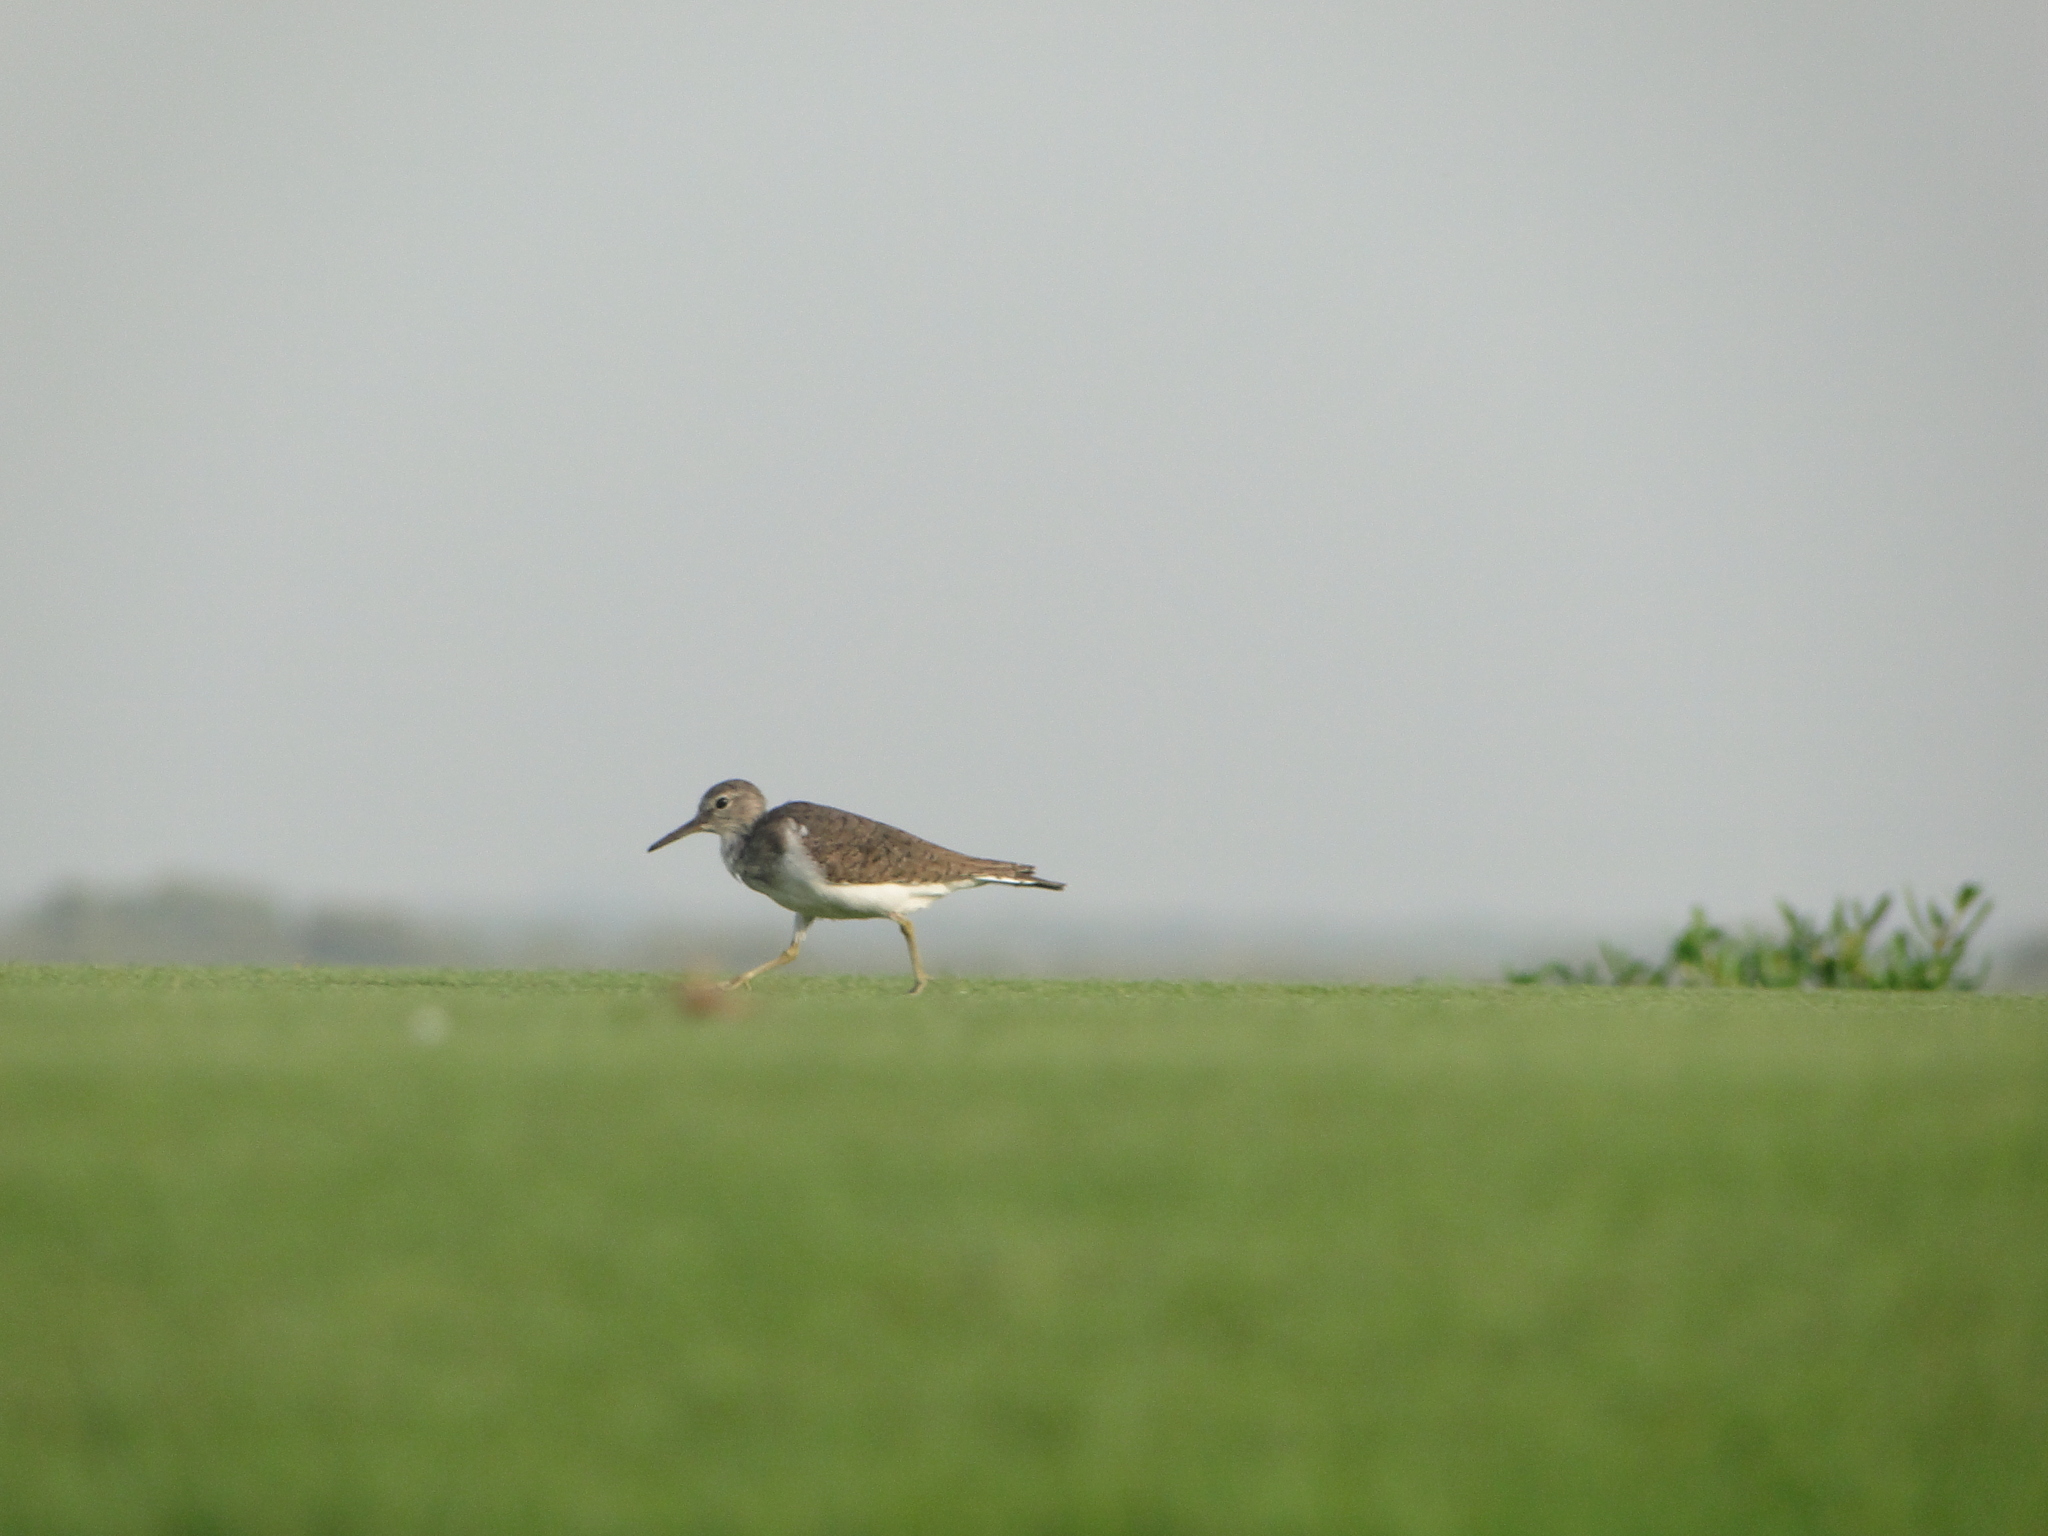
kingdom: Animalia
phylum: Chordata
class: Aves
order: Charadriiformes
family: Scolopacidae
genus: Actitis
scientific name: Actitis hypoleucos
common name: Common sandpiper
